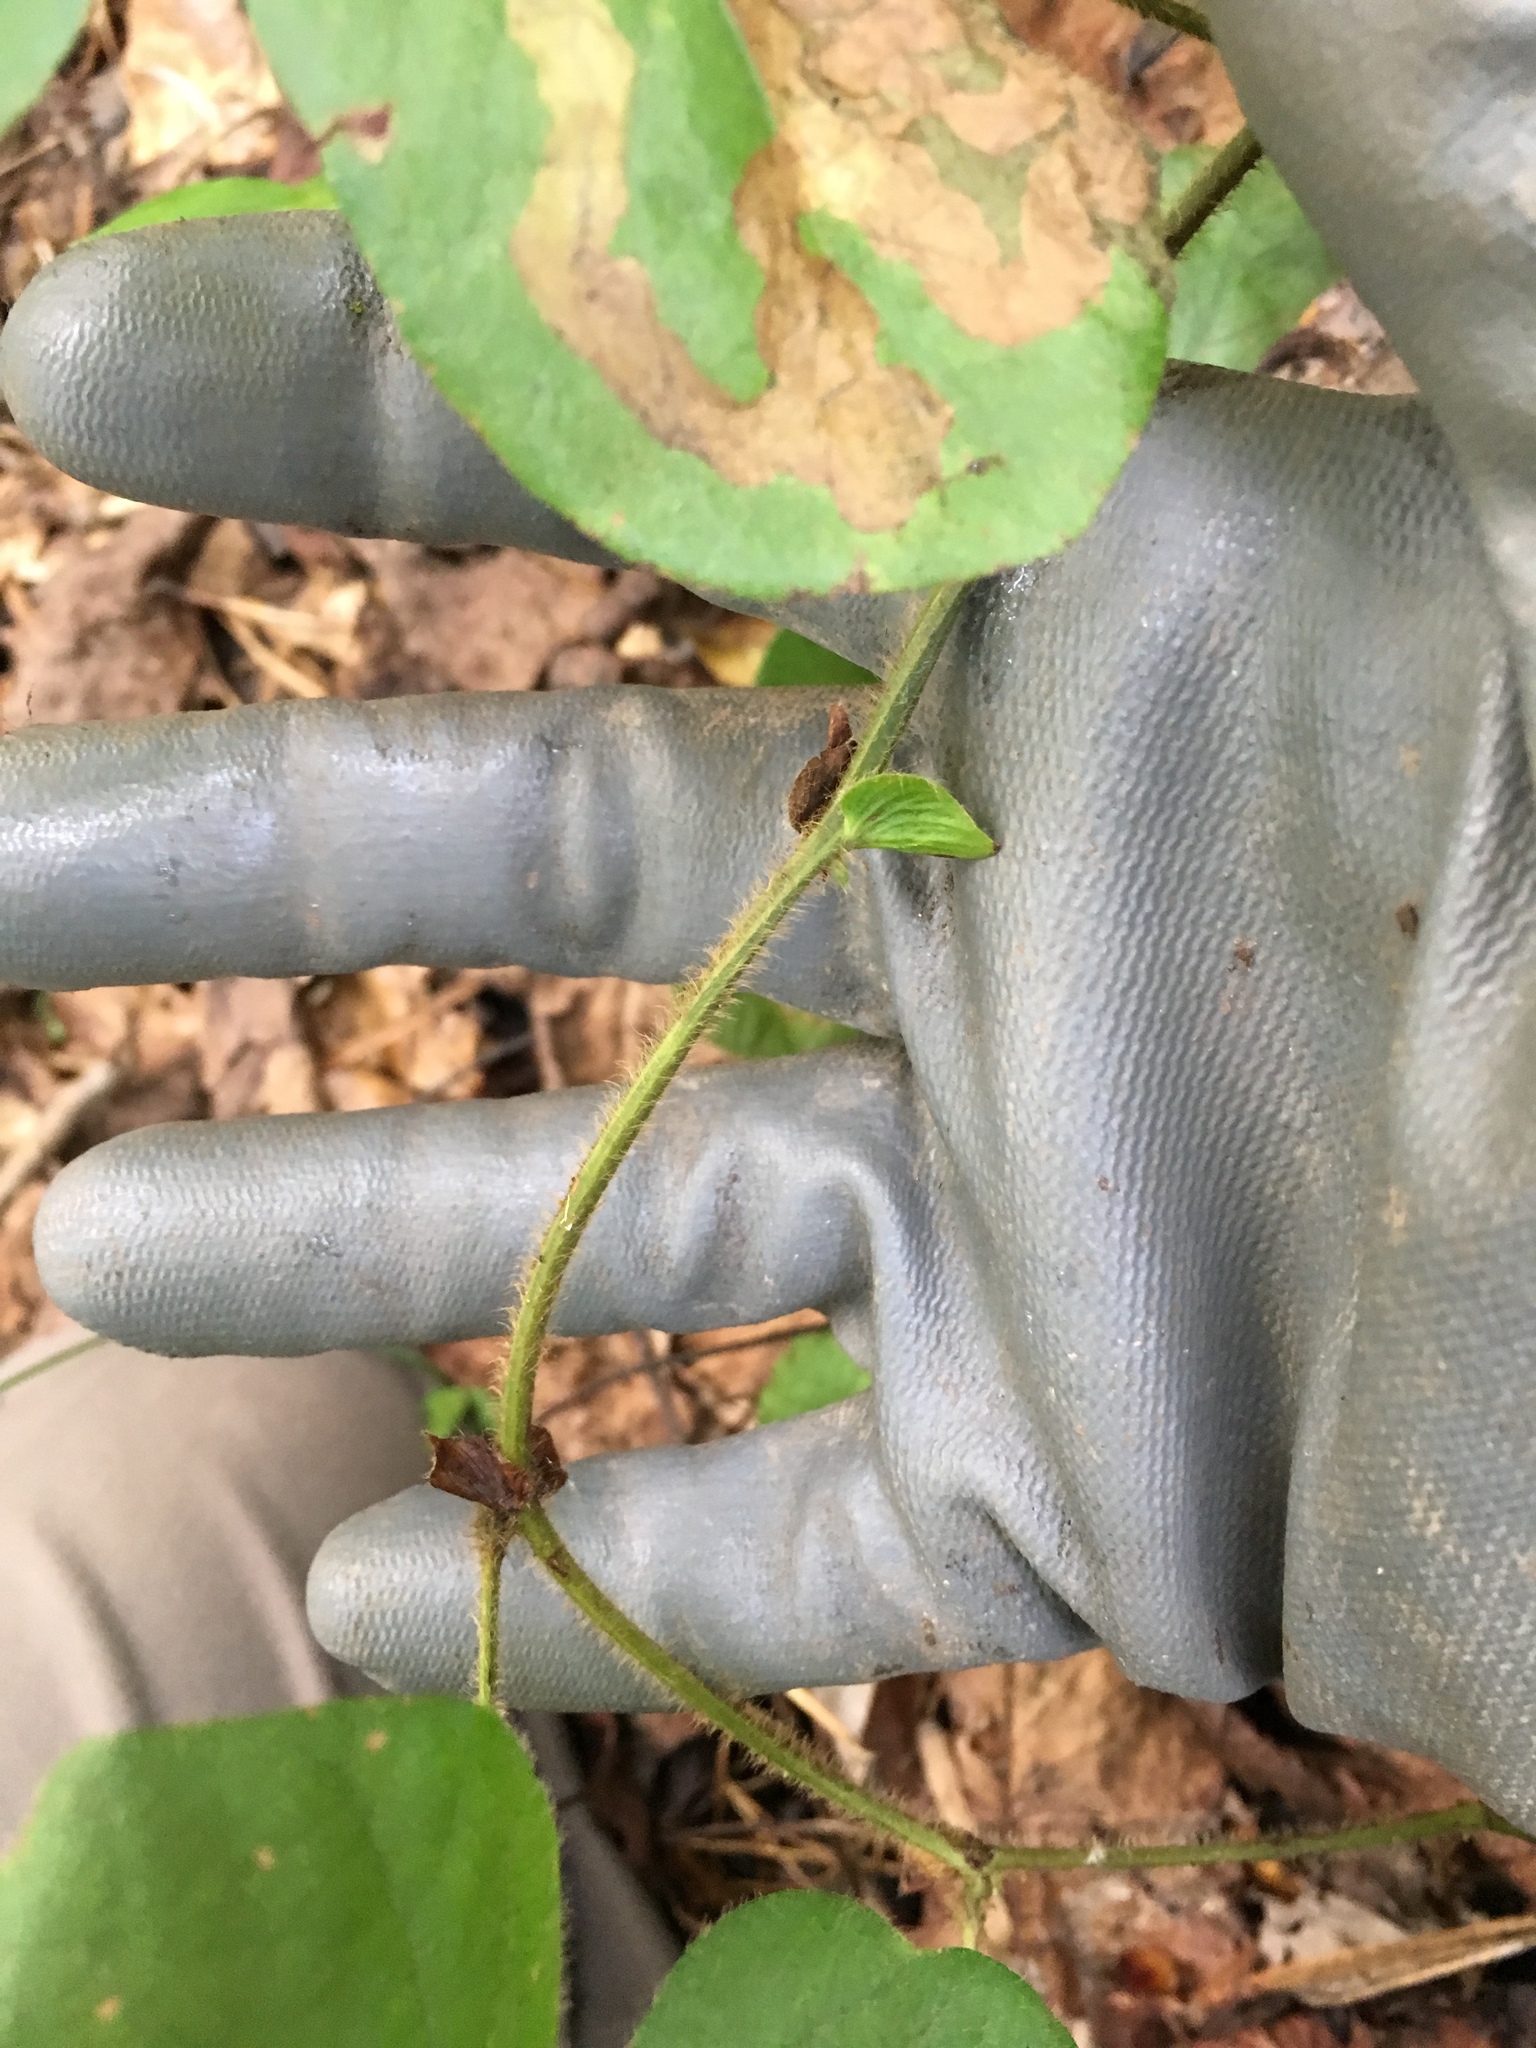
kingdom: Plantae
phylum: Tracheophyta
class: Magnoliopsida
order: Fabales
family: Fabaceae
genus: Desmodium
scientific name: Desmodium rotundifolium
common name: Dollarleaf
